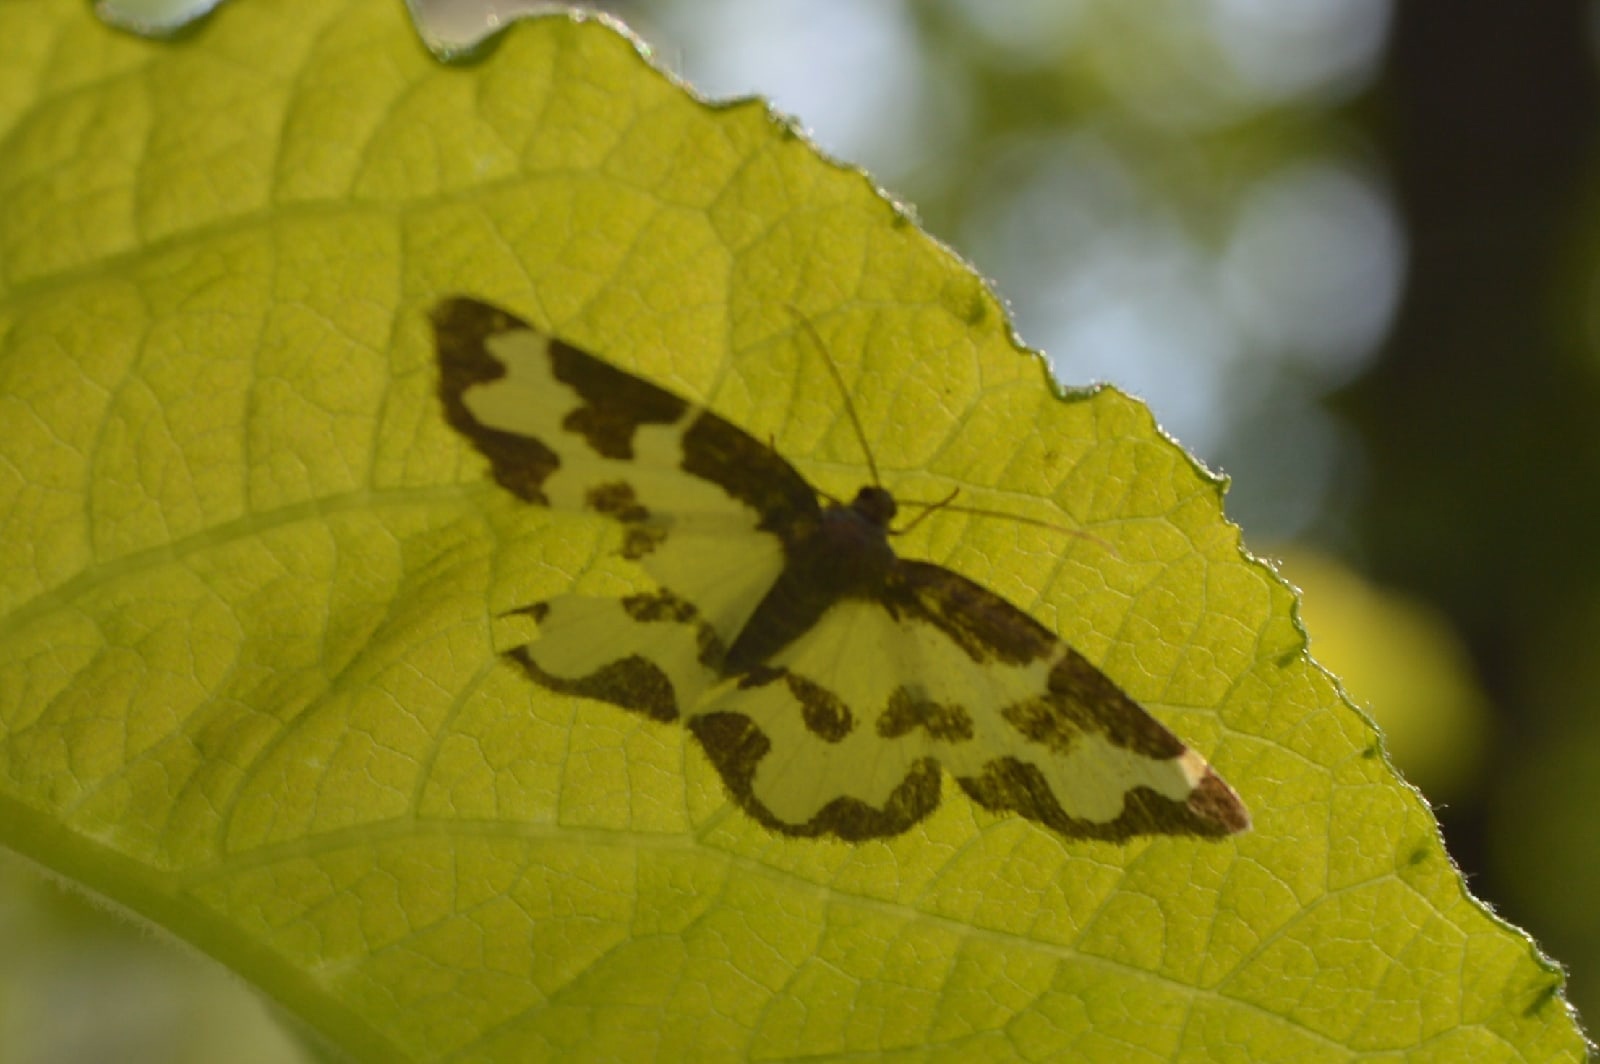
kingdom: Animalia
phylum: Arthropoda
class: Insecta
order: Lepidoptera
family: Geometridae
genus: Lomaspilis
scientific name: Lomaspilis marginata
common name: Clouded border
